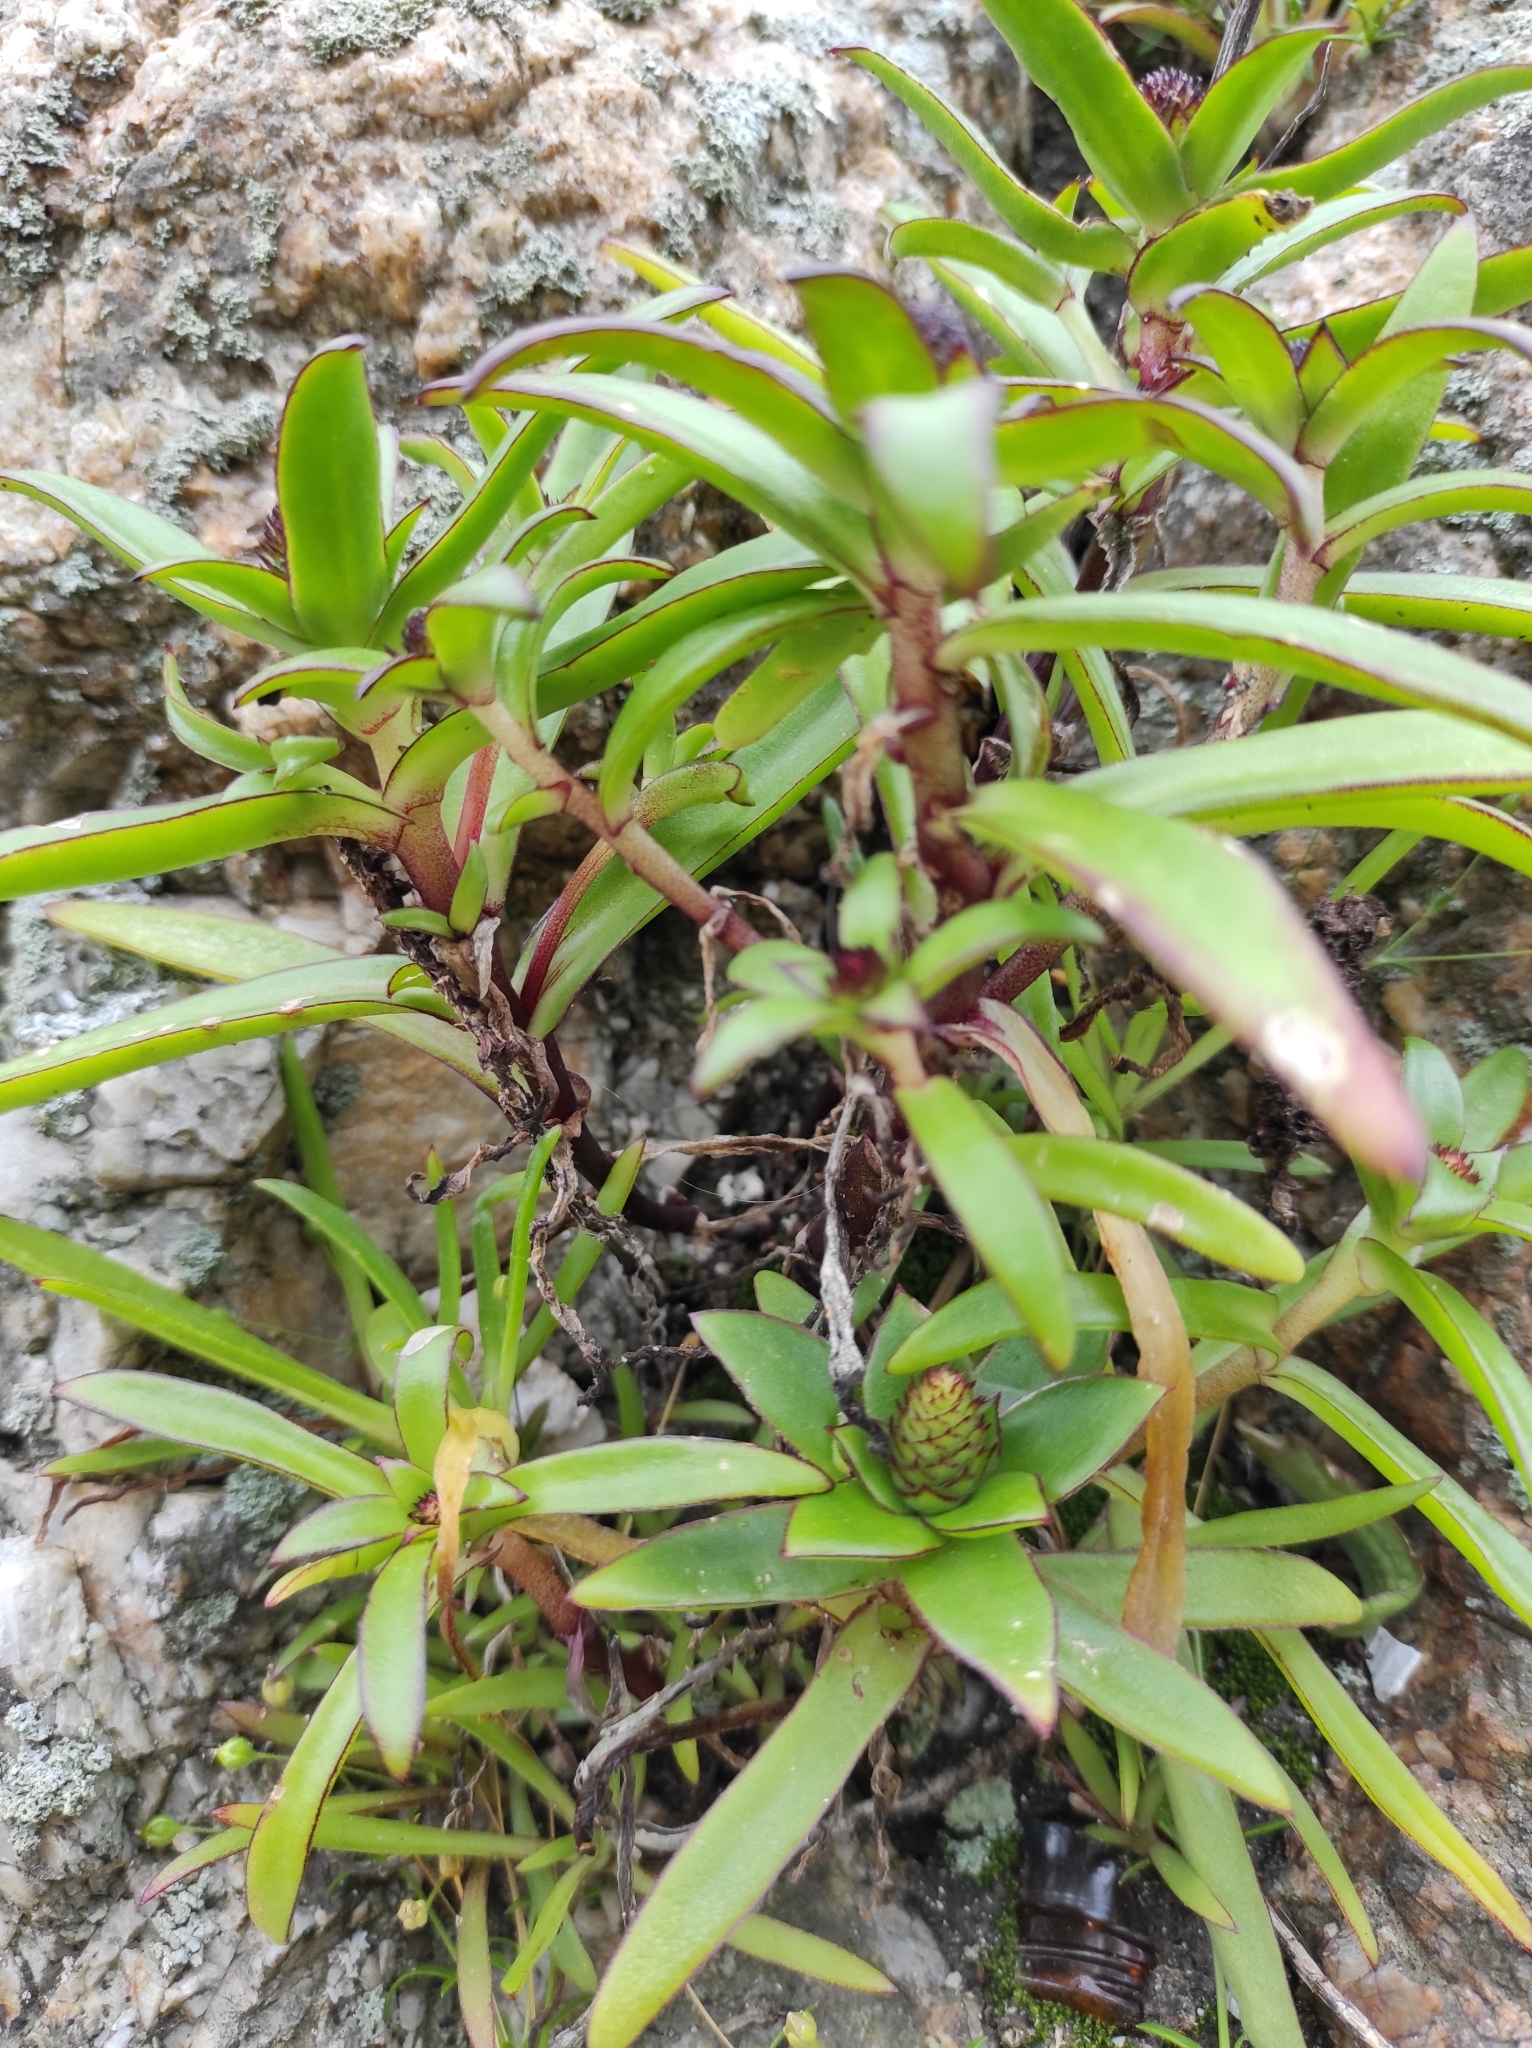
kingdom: Plantae
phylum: Tracheophyta
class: Magnoliopsida
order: Saxifragales
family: Crassulaceae
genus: Orostachys
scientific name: Orostachys maximowiczii
